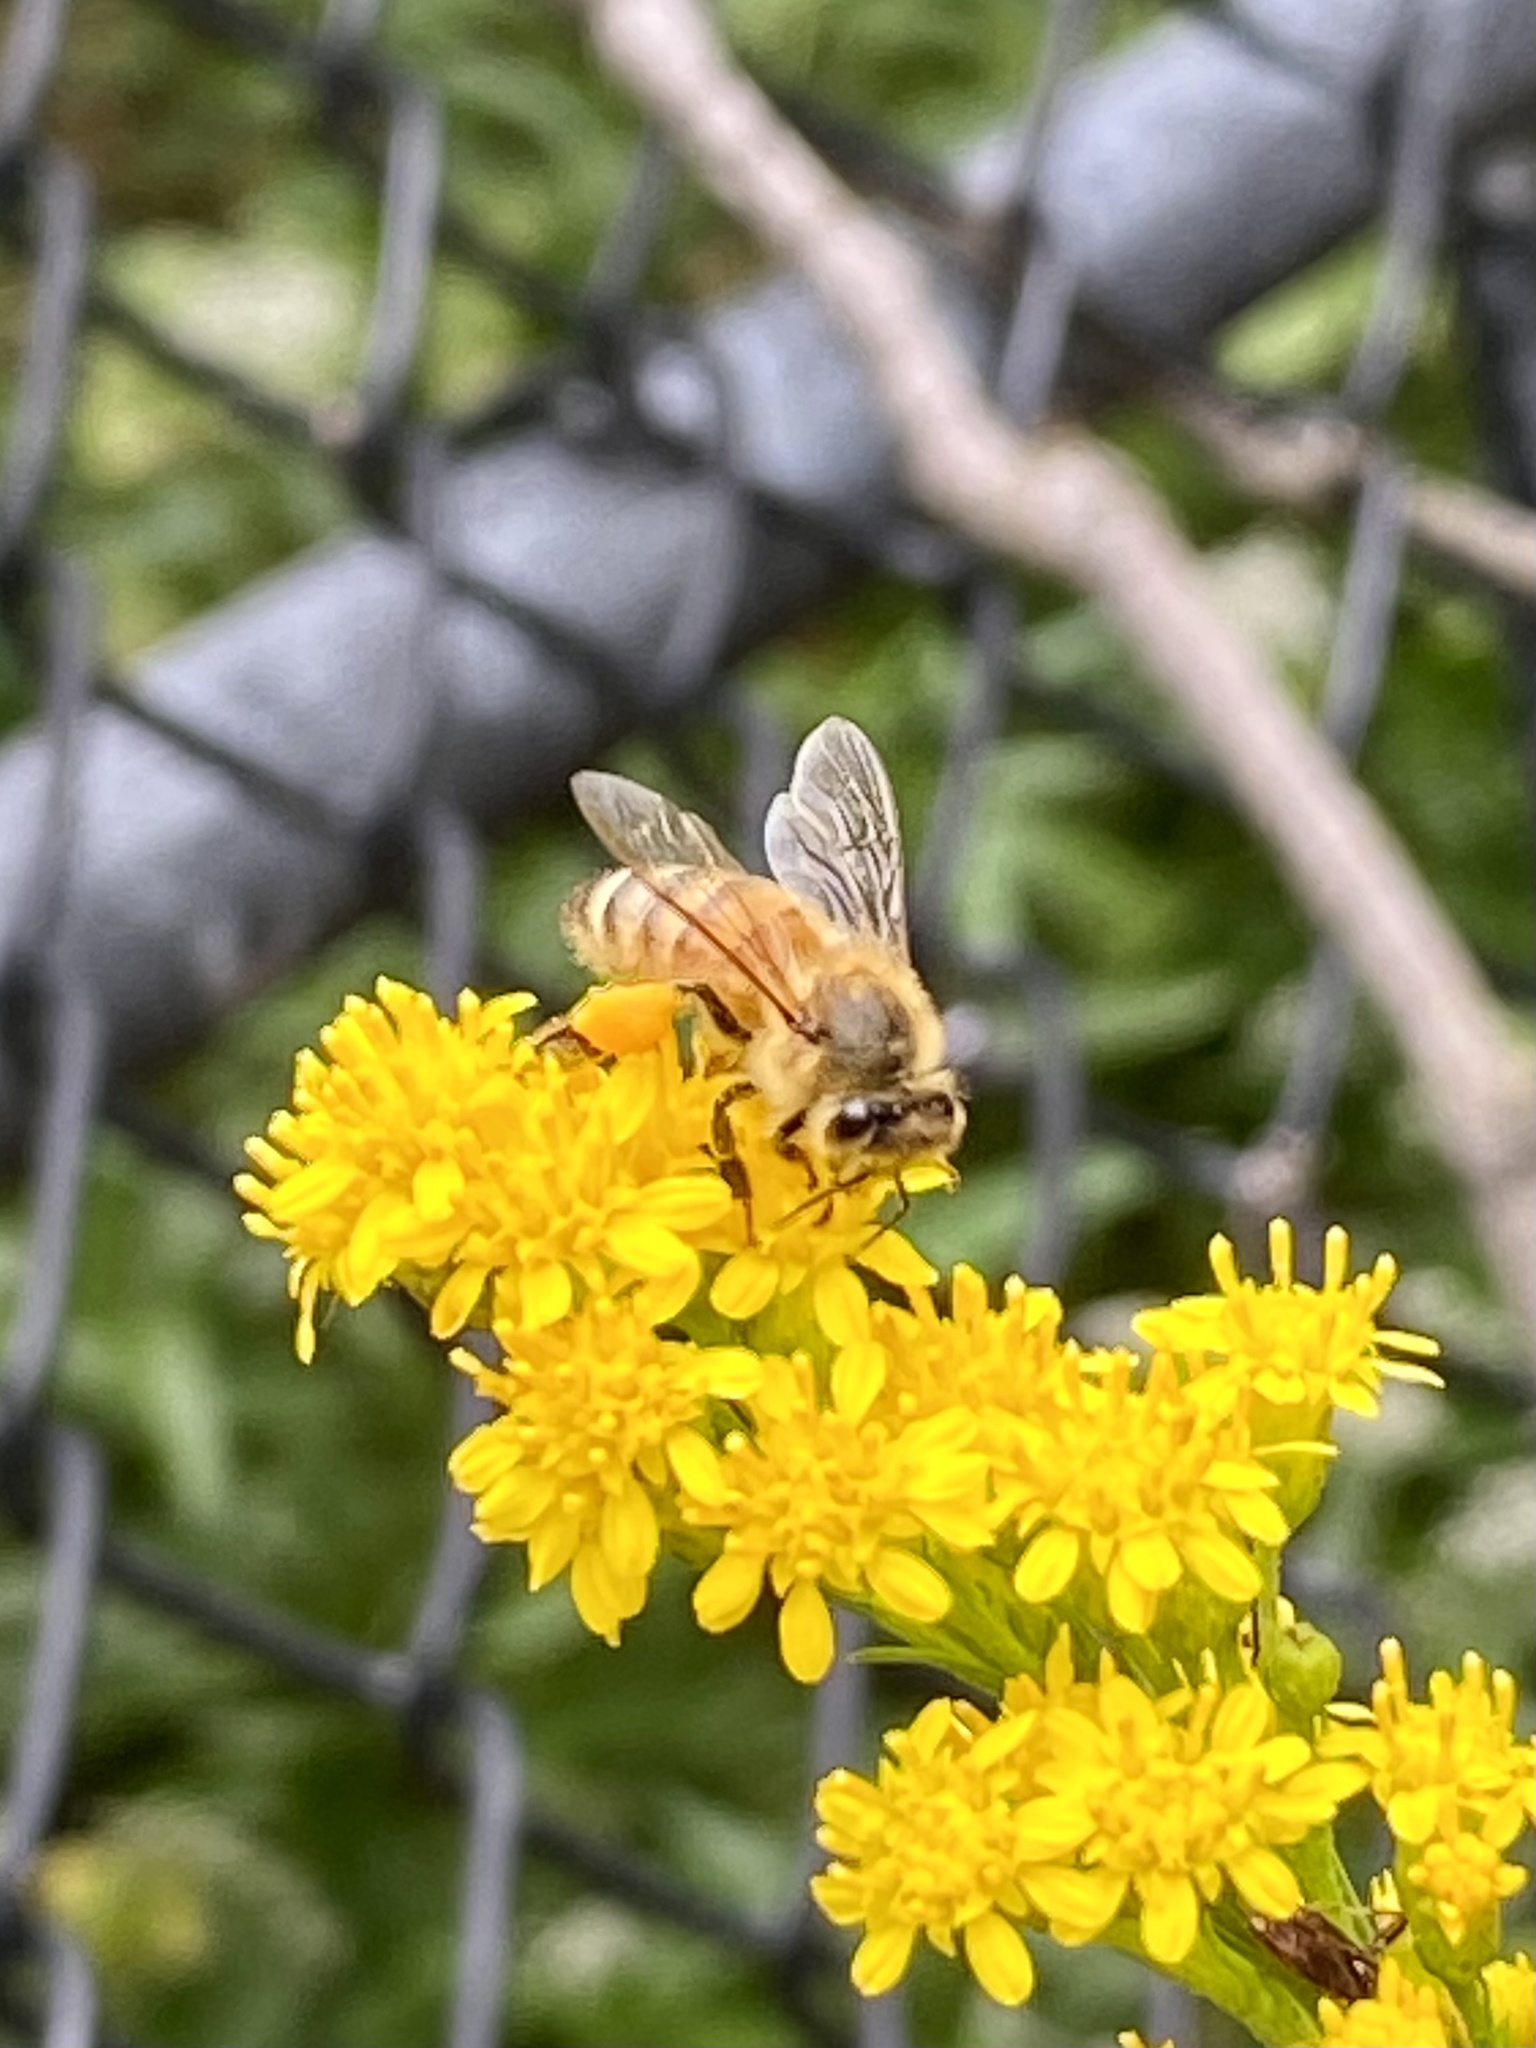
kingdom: Animalia
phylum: Arthropoda
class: Insecta
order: Hymenoptera
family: Apidae
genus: Apis
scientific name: Apis mellifera
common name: Honey bee
